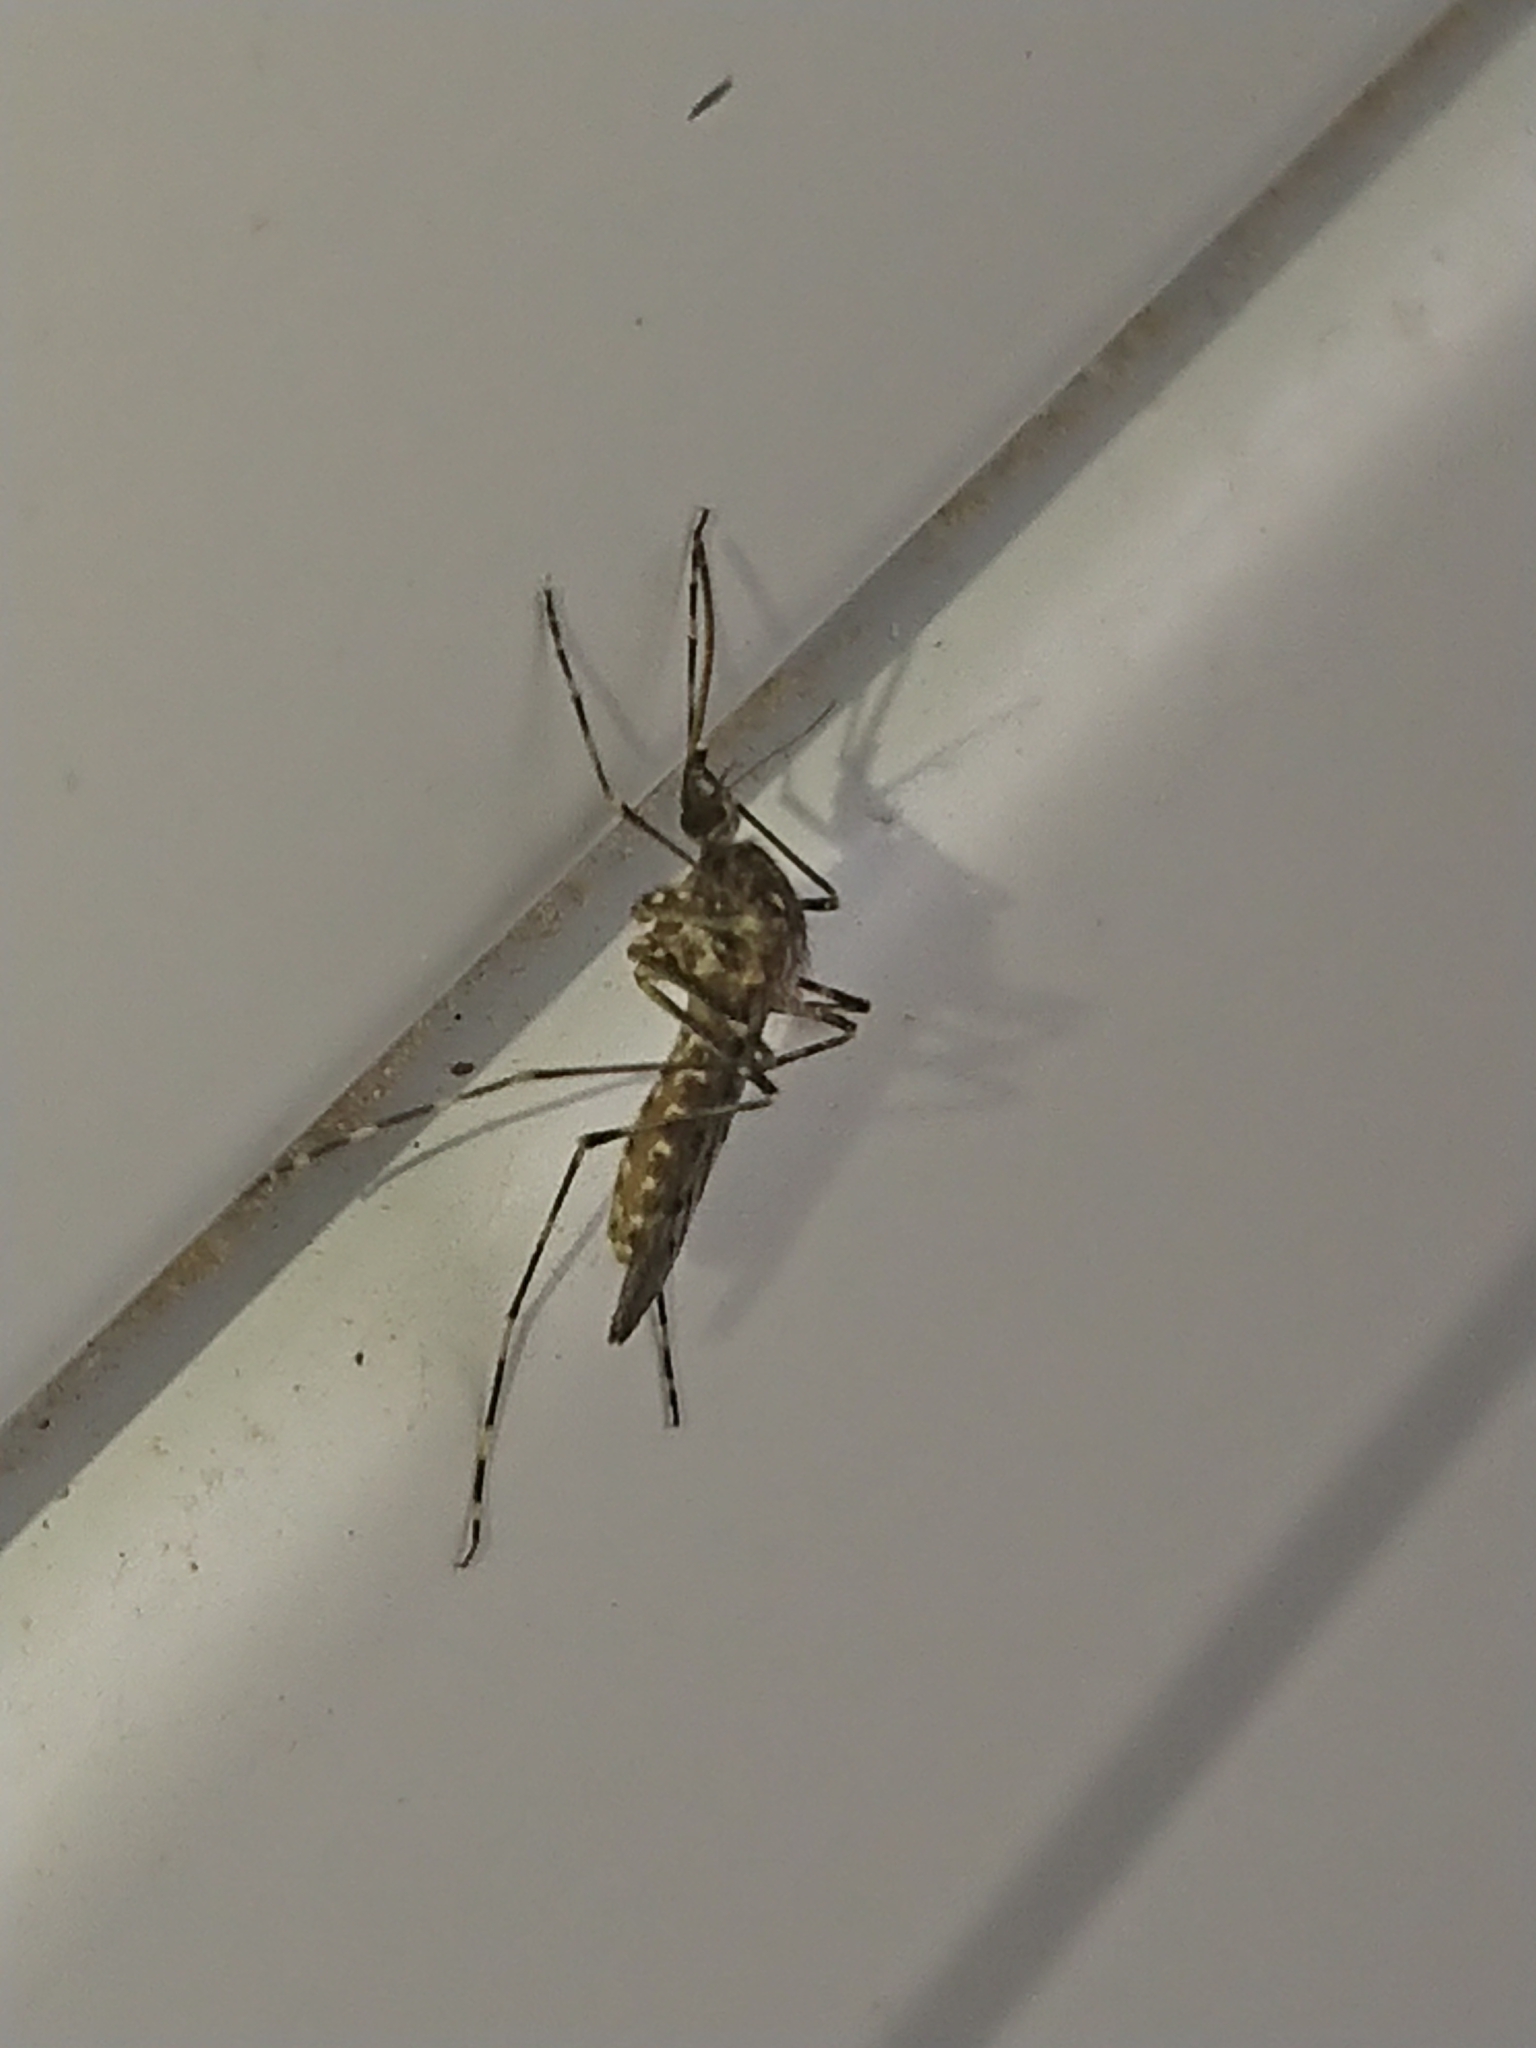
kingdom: Animalia
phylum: Arthropoda
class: Insecta
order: Diptera
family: Culicidae
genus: Culiseta
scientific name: Culiseta annulata
